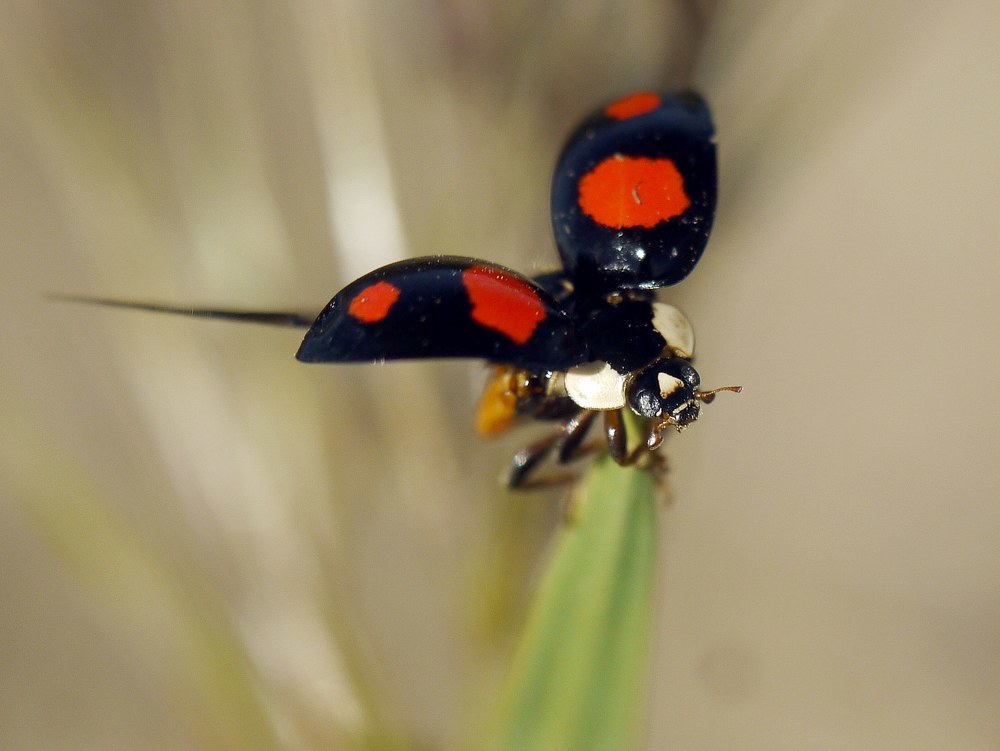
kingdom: Animalia
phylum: Arthropoda
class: Insecta
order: Coleoptera
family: Coccinellidae
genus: Harmonia
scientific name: Harmonia axyridis
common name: Harlequin ladybird
